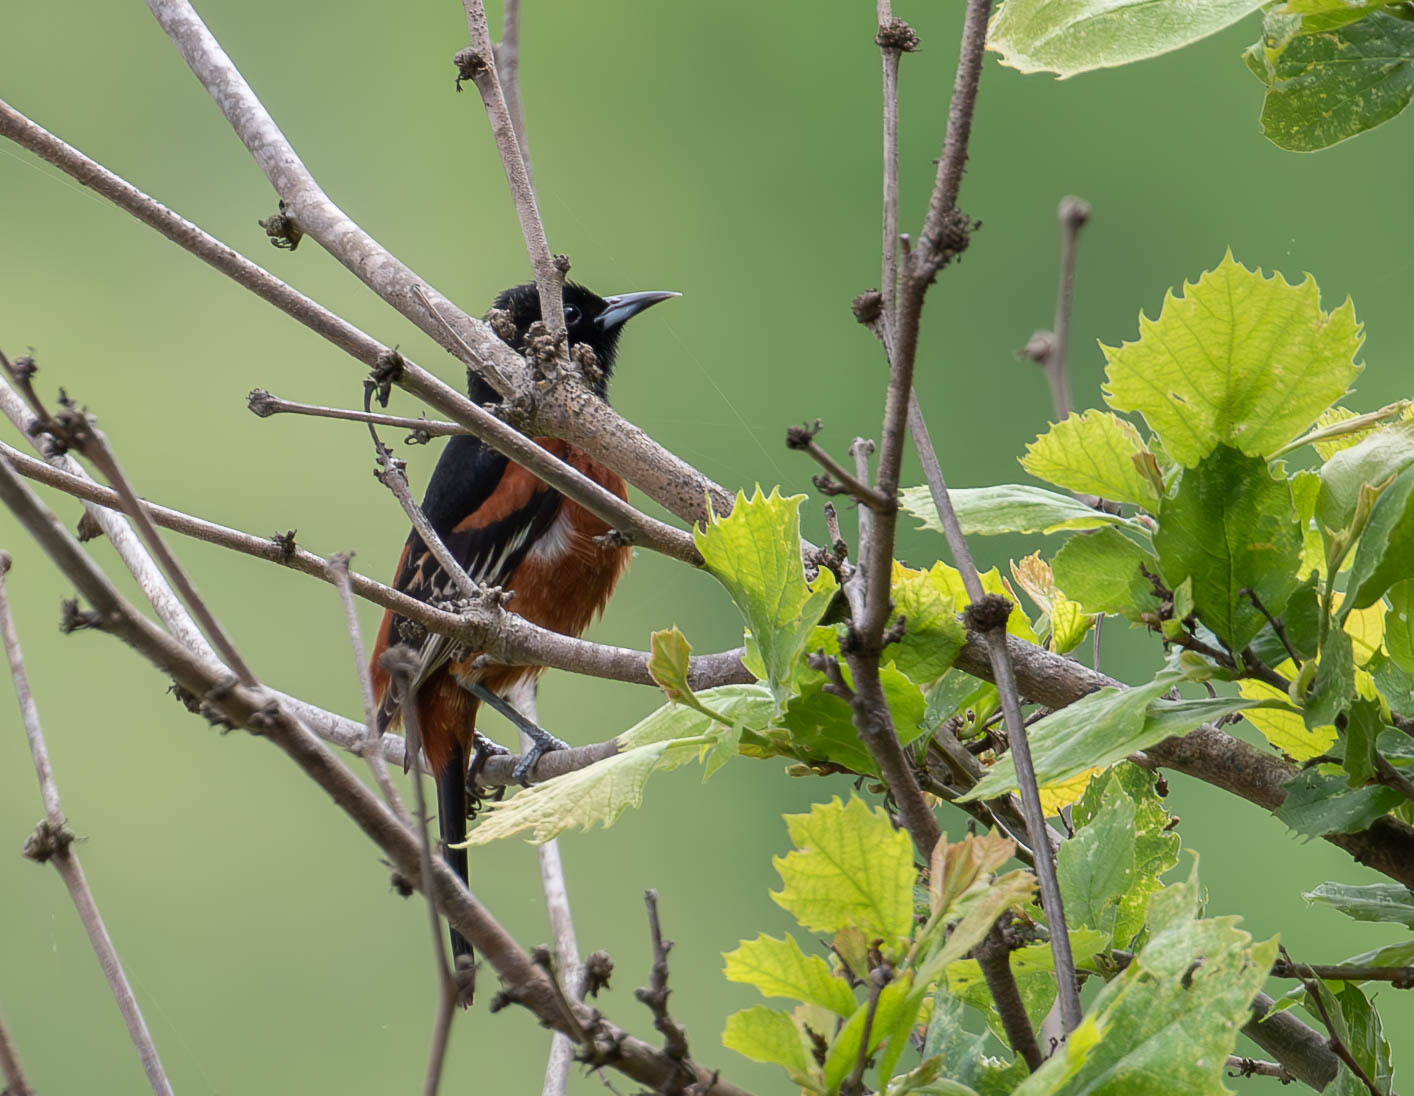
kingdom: Animalia
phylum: Chordata
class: Aves
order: Passeriformes
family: Icteridae
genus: Icterus
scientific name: Icterus spurius
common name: Orchard oriole
